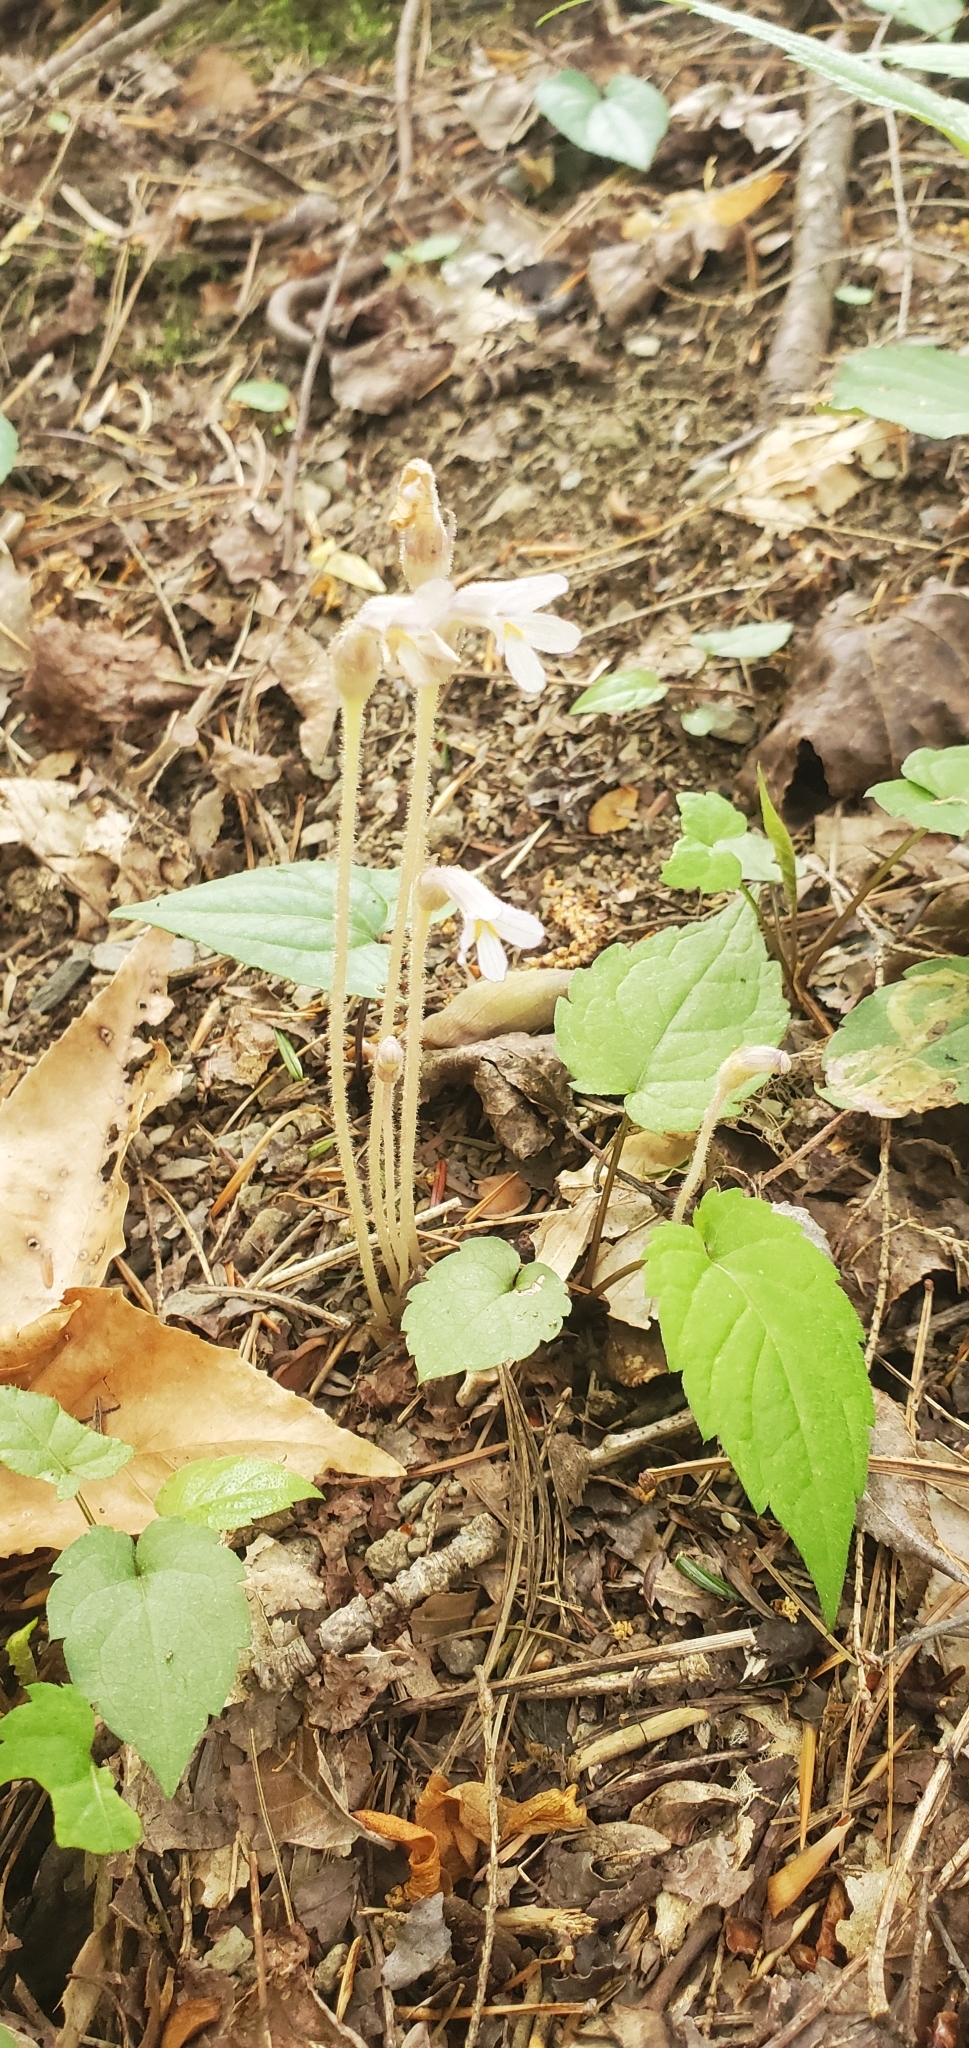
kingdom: Plantae
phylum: Tracheophyta
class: Magnoliopsida
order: Lamiales
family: Orobanchaceae
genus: Aphyllon
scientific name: Aphyllon uniflorum
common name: One-flowered broomrape
